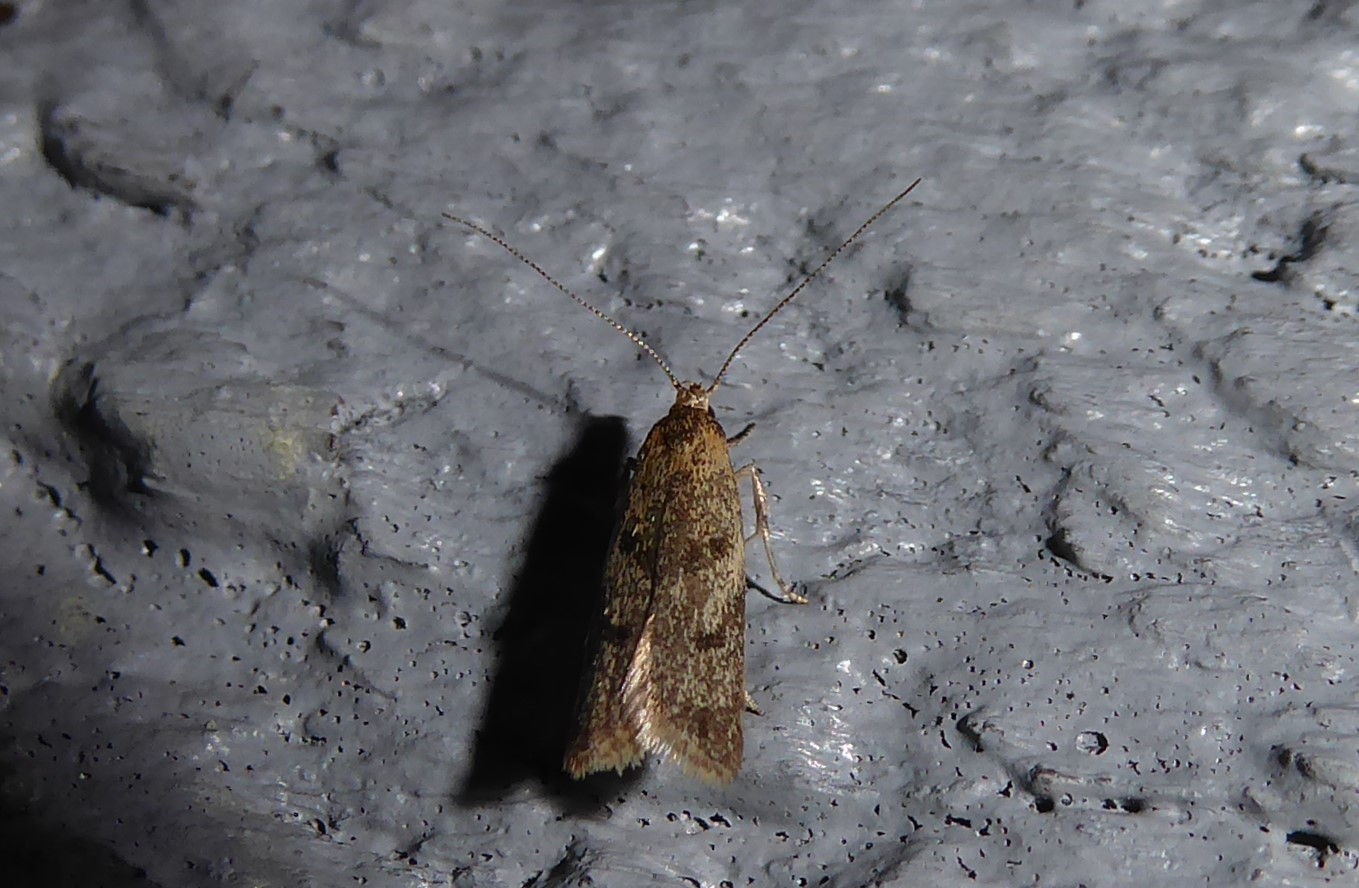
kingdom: Animalia
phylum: Arthropoda
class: Insecta
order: Lepidoptera
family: Oecophoridae
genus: Gymnobathra
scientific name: Gymnobathra tholodella
